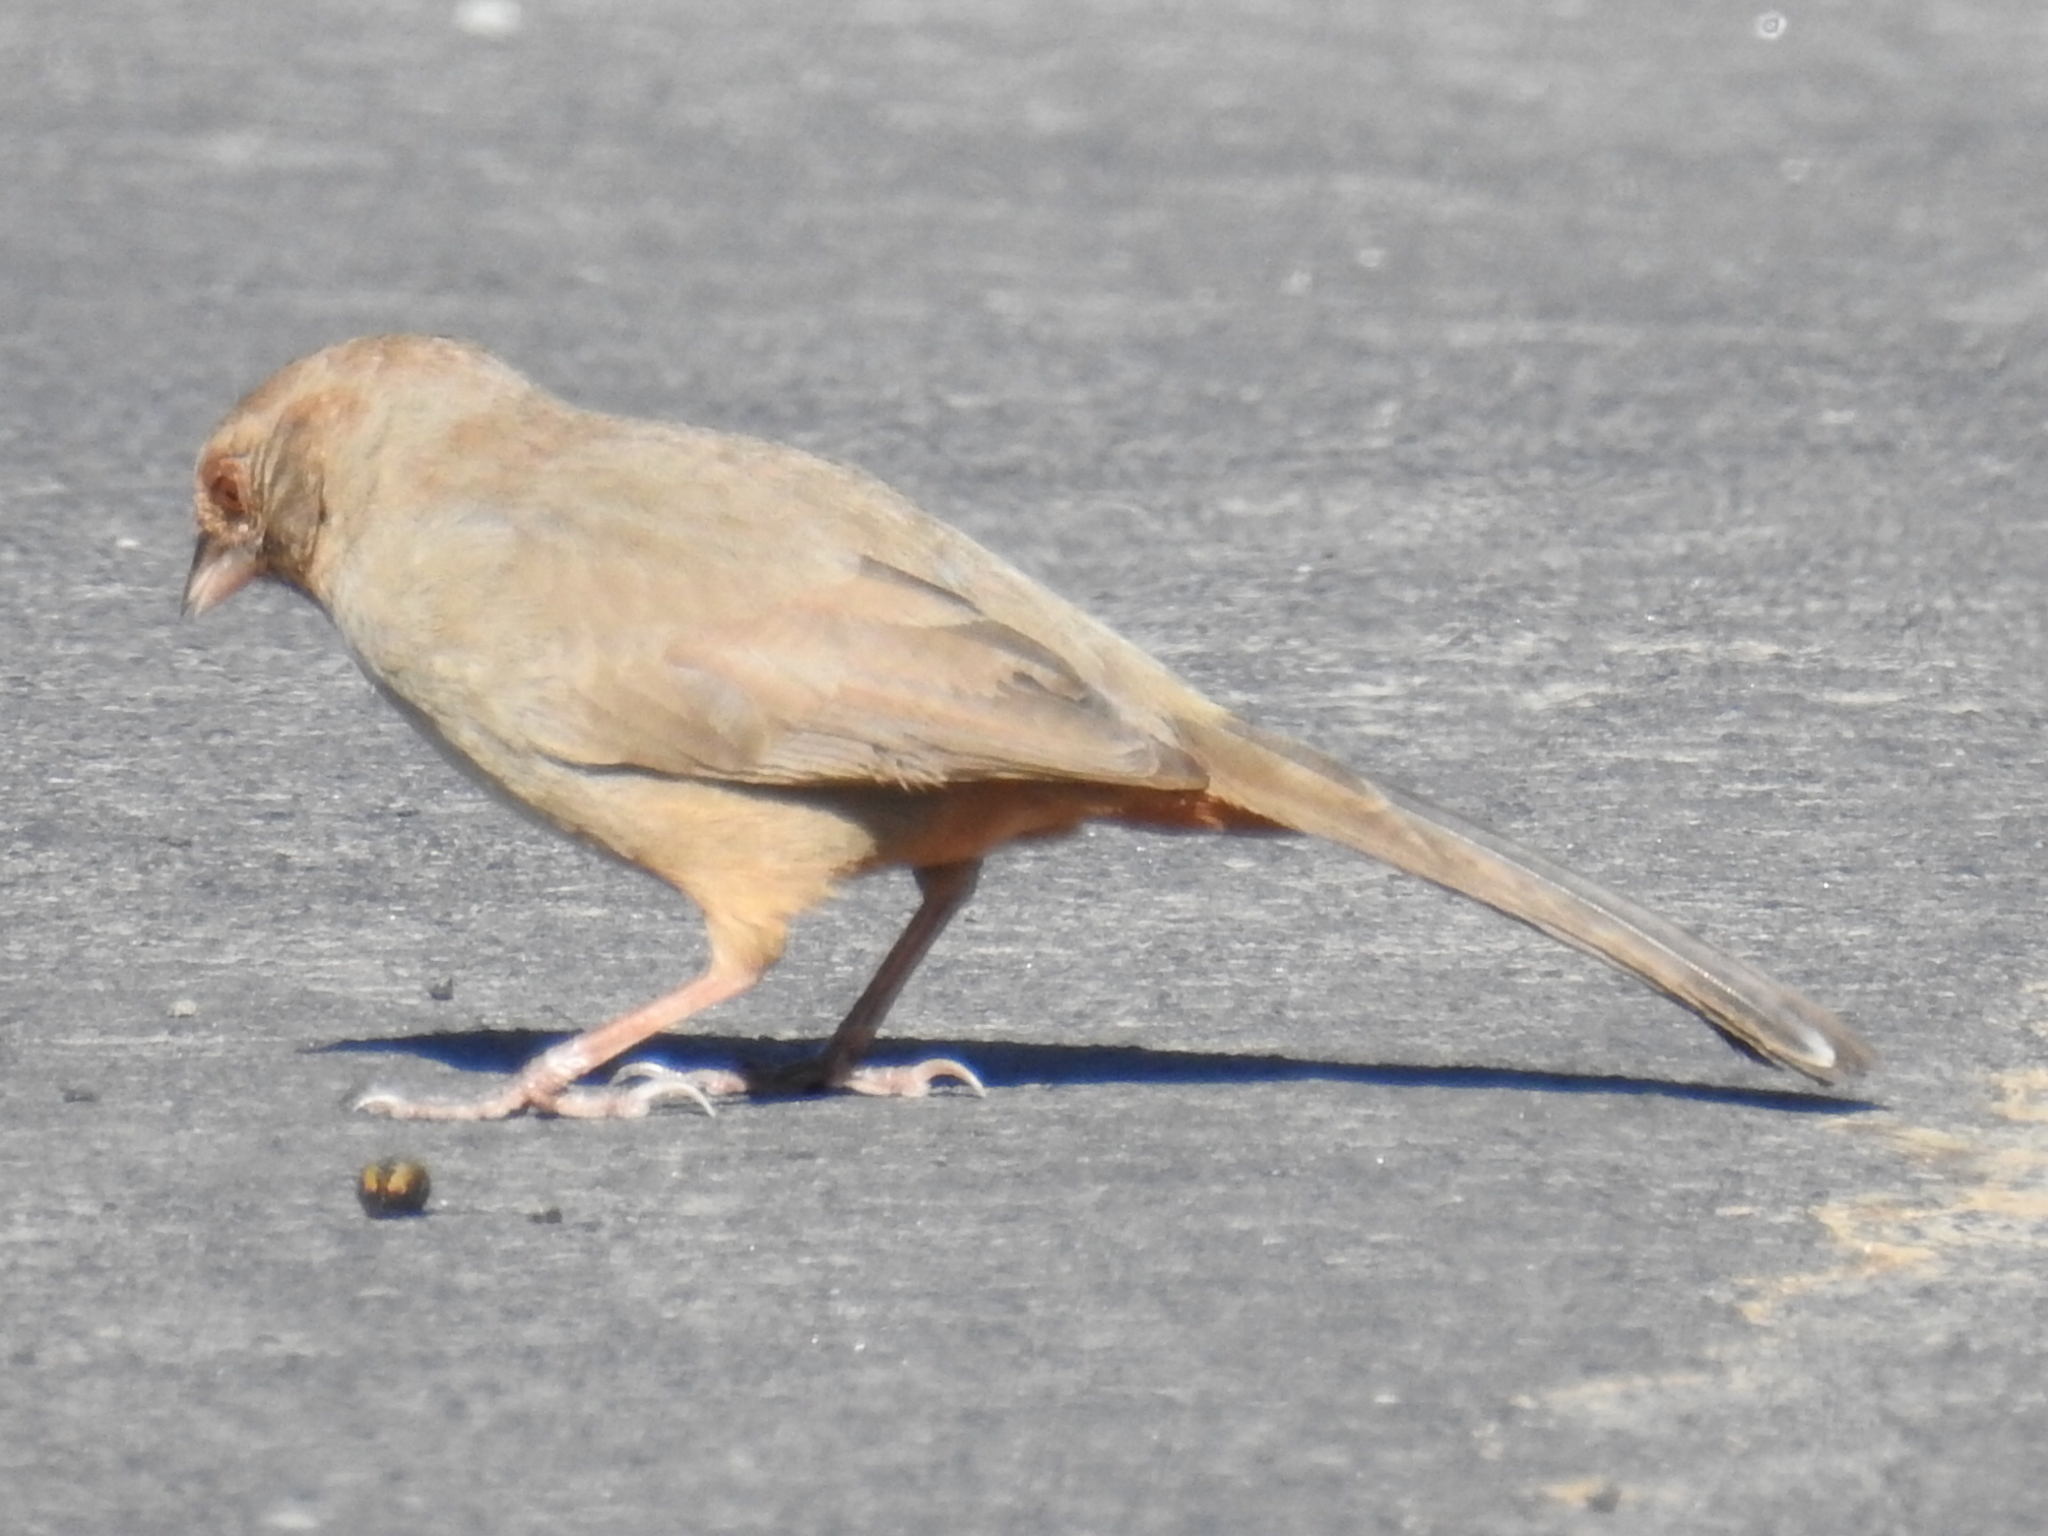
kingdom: Animalia
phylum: Chordata
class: Aves
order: Passeriformes
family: Passerellidae
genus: Melozone
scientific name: Melozone crissalis
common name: California towhee
